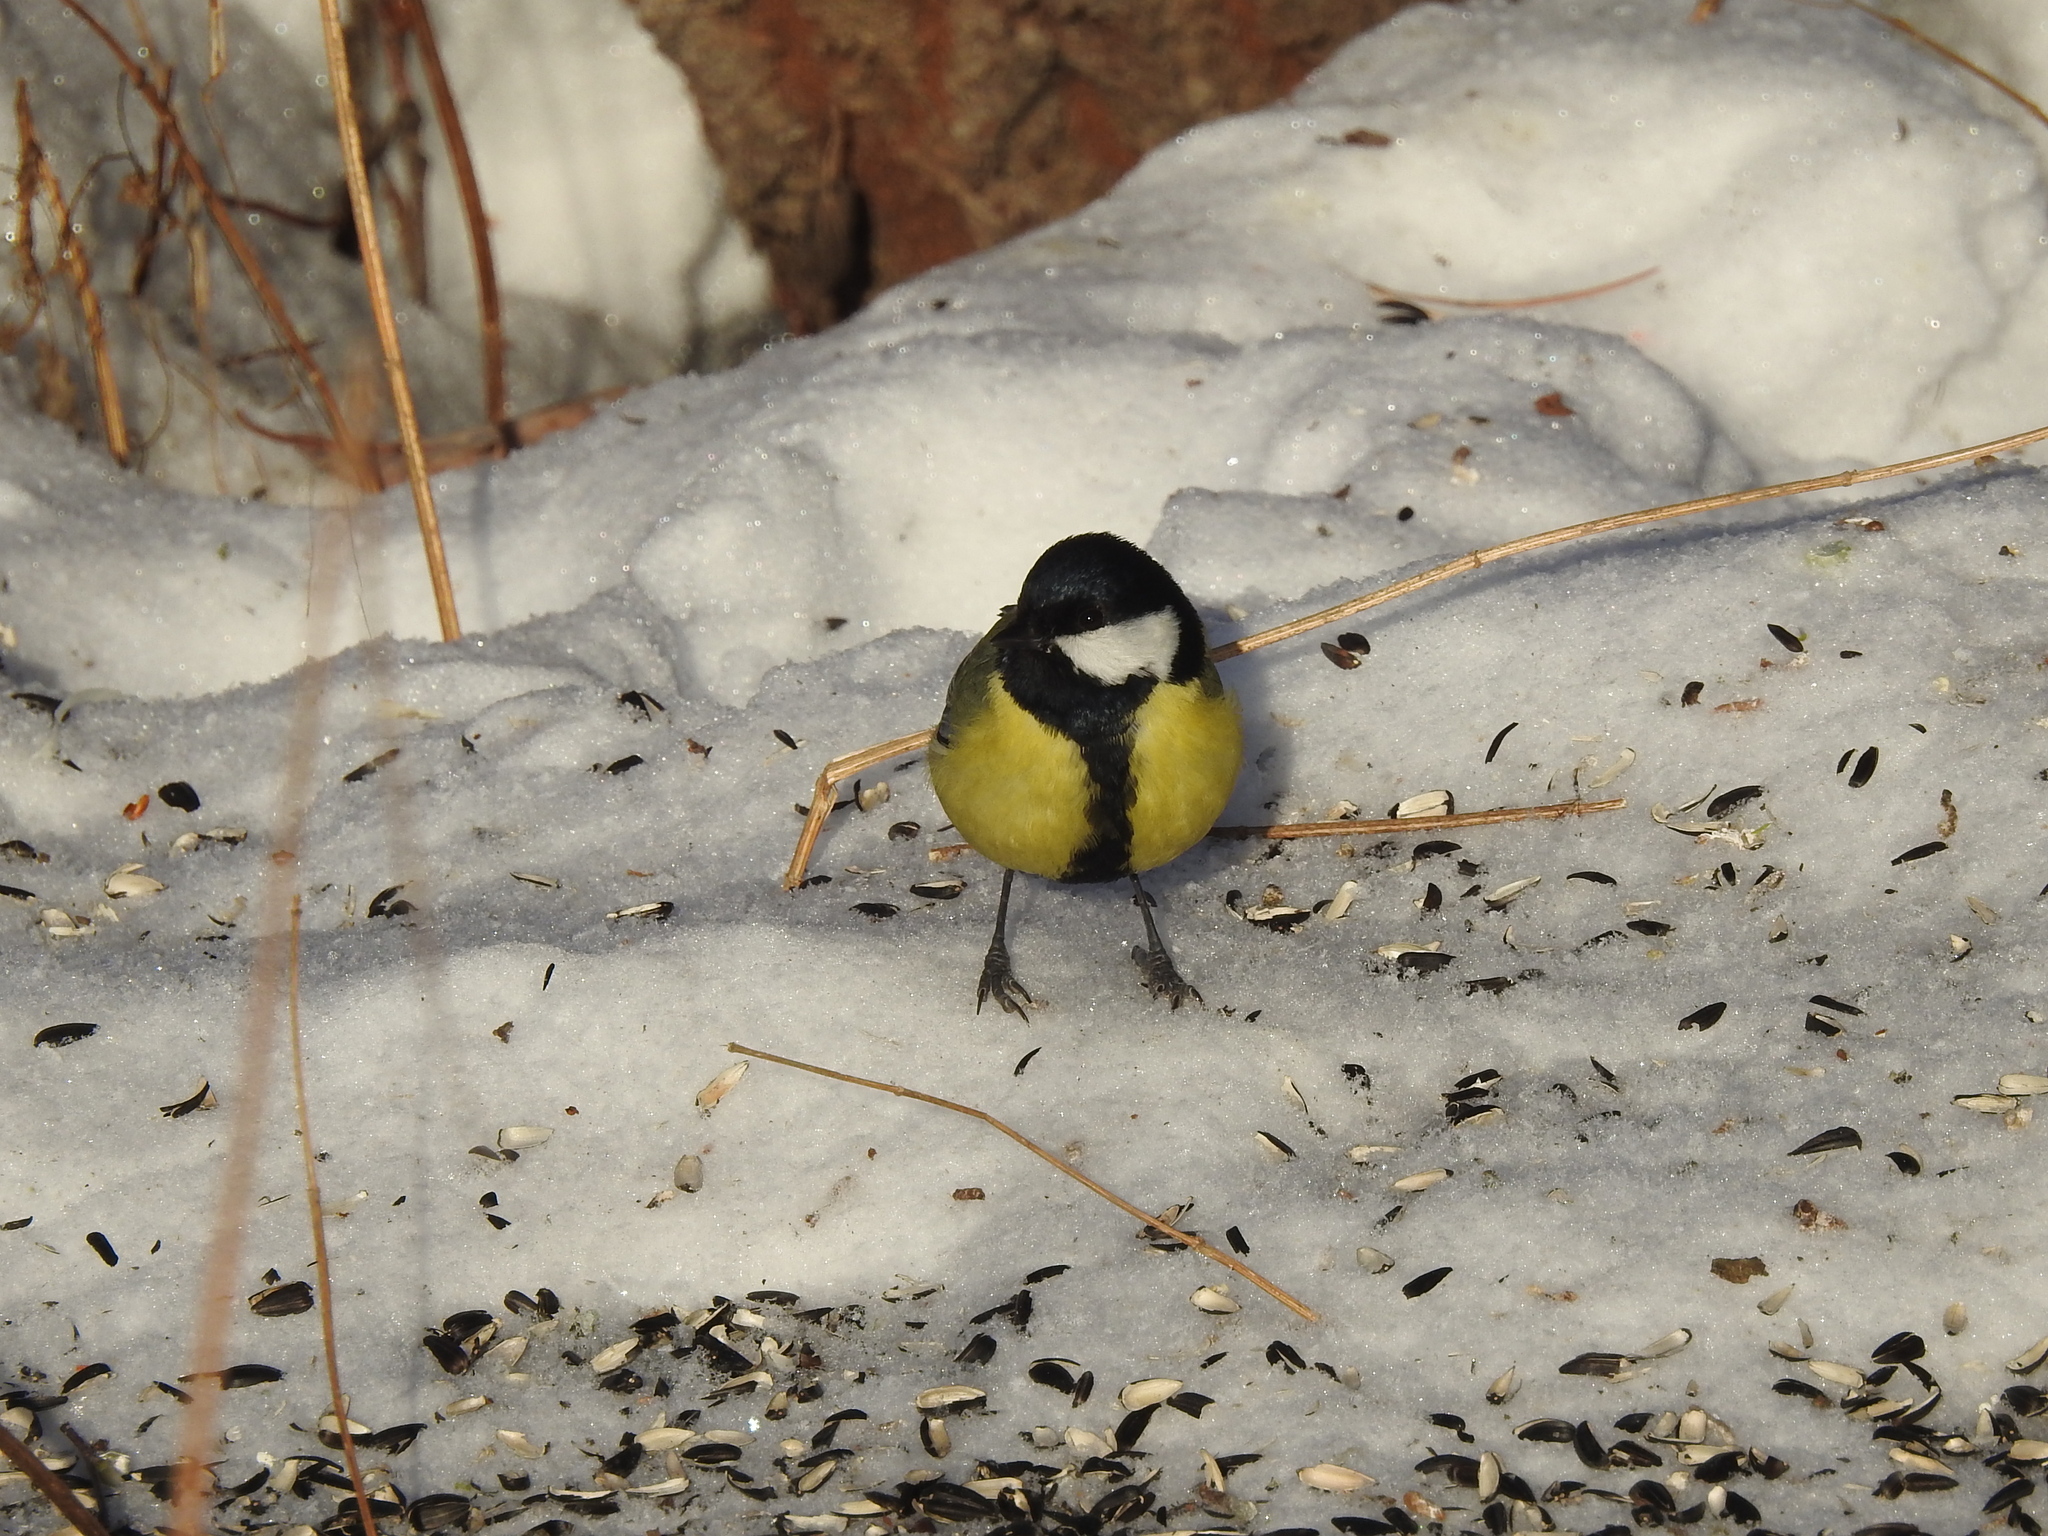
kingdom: Animalia
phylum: Chordata
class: Aves
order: Passeriformes
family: Paridae
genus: Parus
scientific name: Parus major
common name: Great tit
